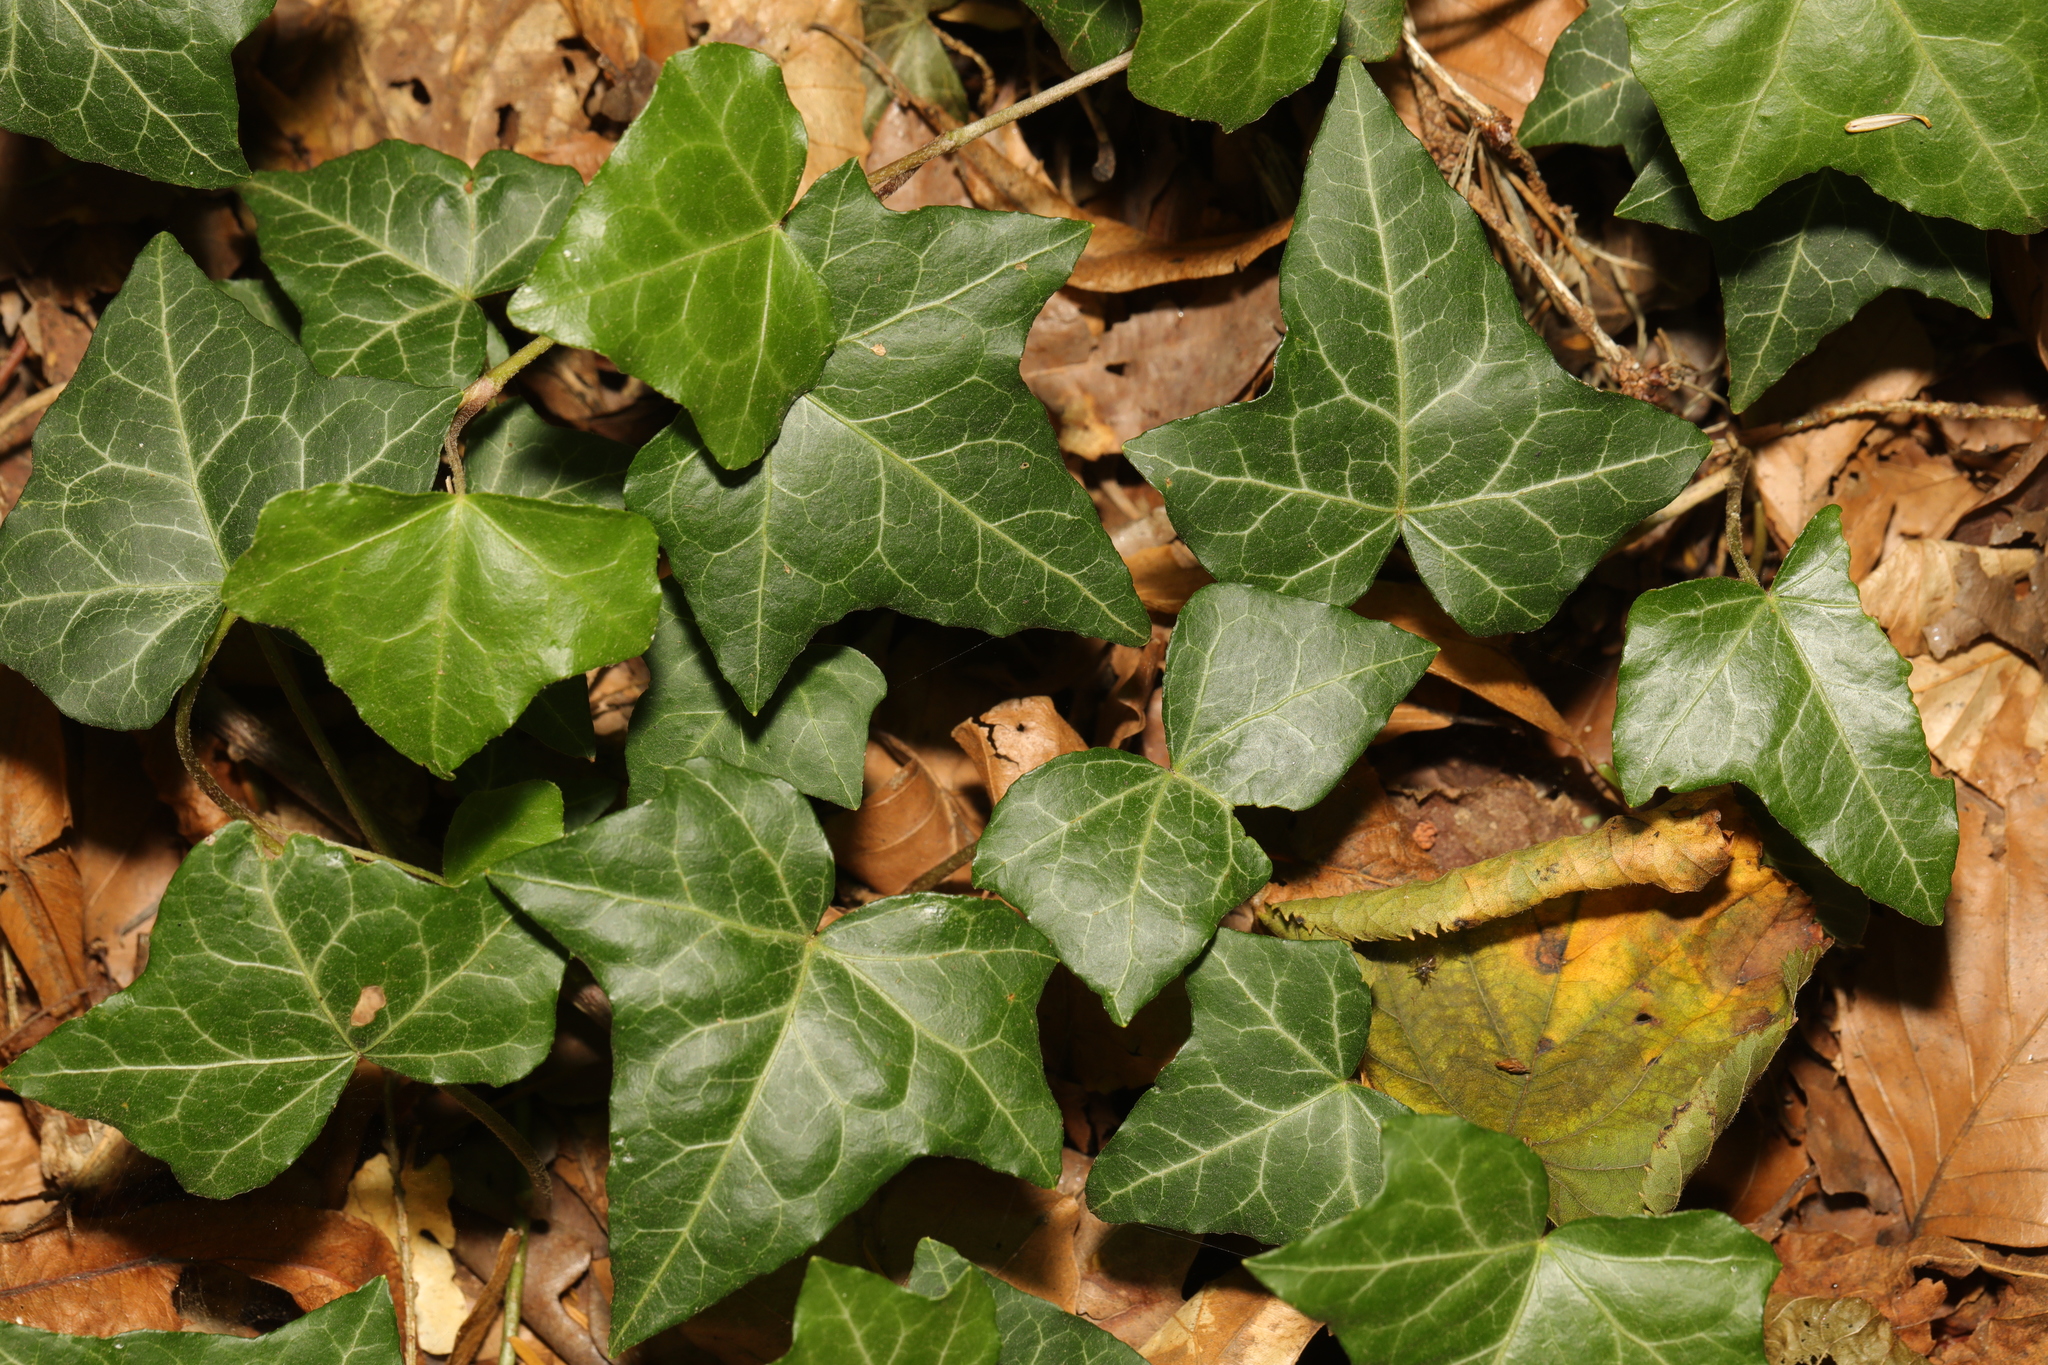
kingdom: Plantae
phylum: Tracheophyta
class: Magnoliopsida
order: Apiales
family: Araliaceae
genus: Hedera
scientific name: Hedera helix
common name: Ivy
